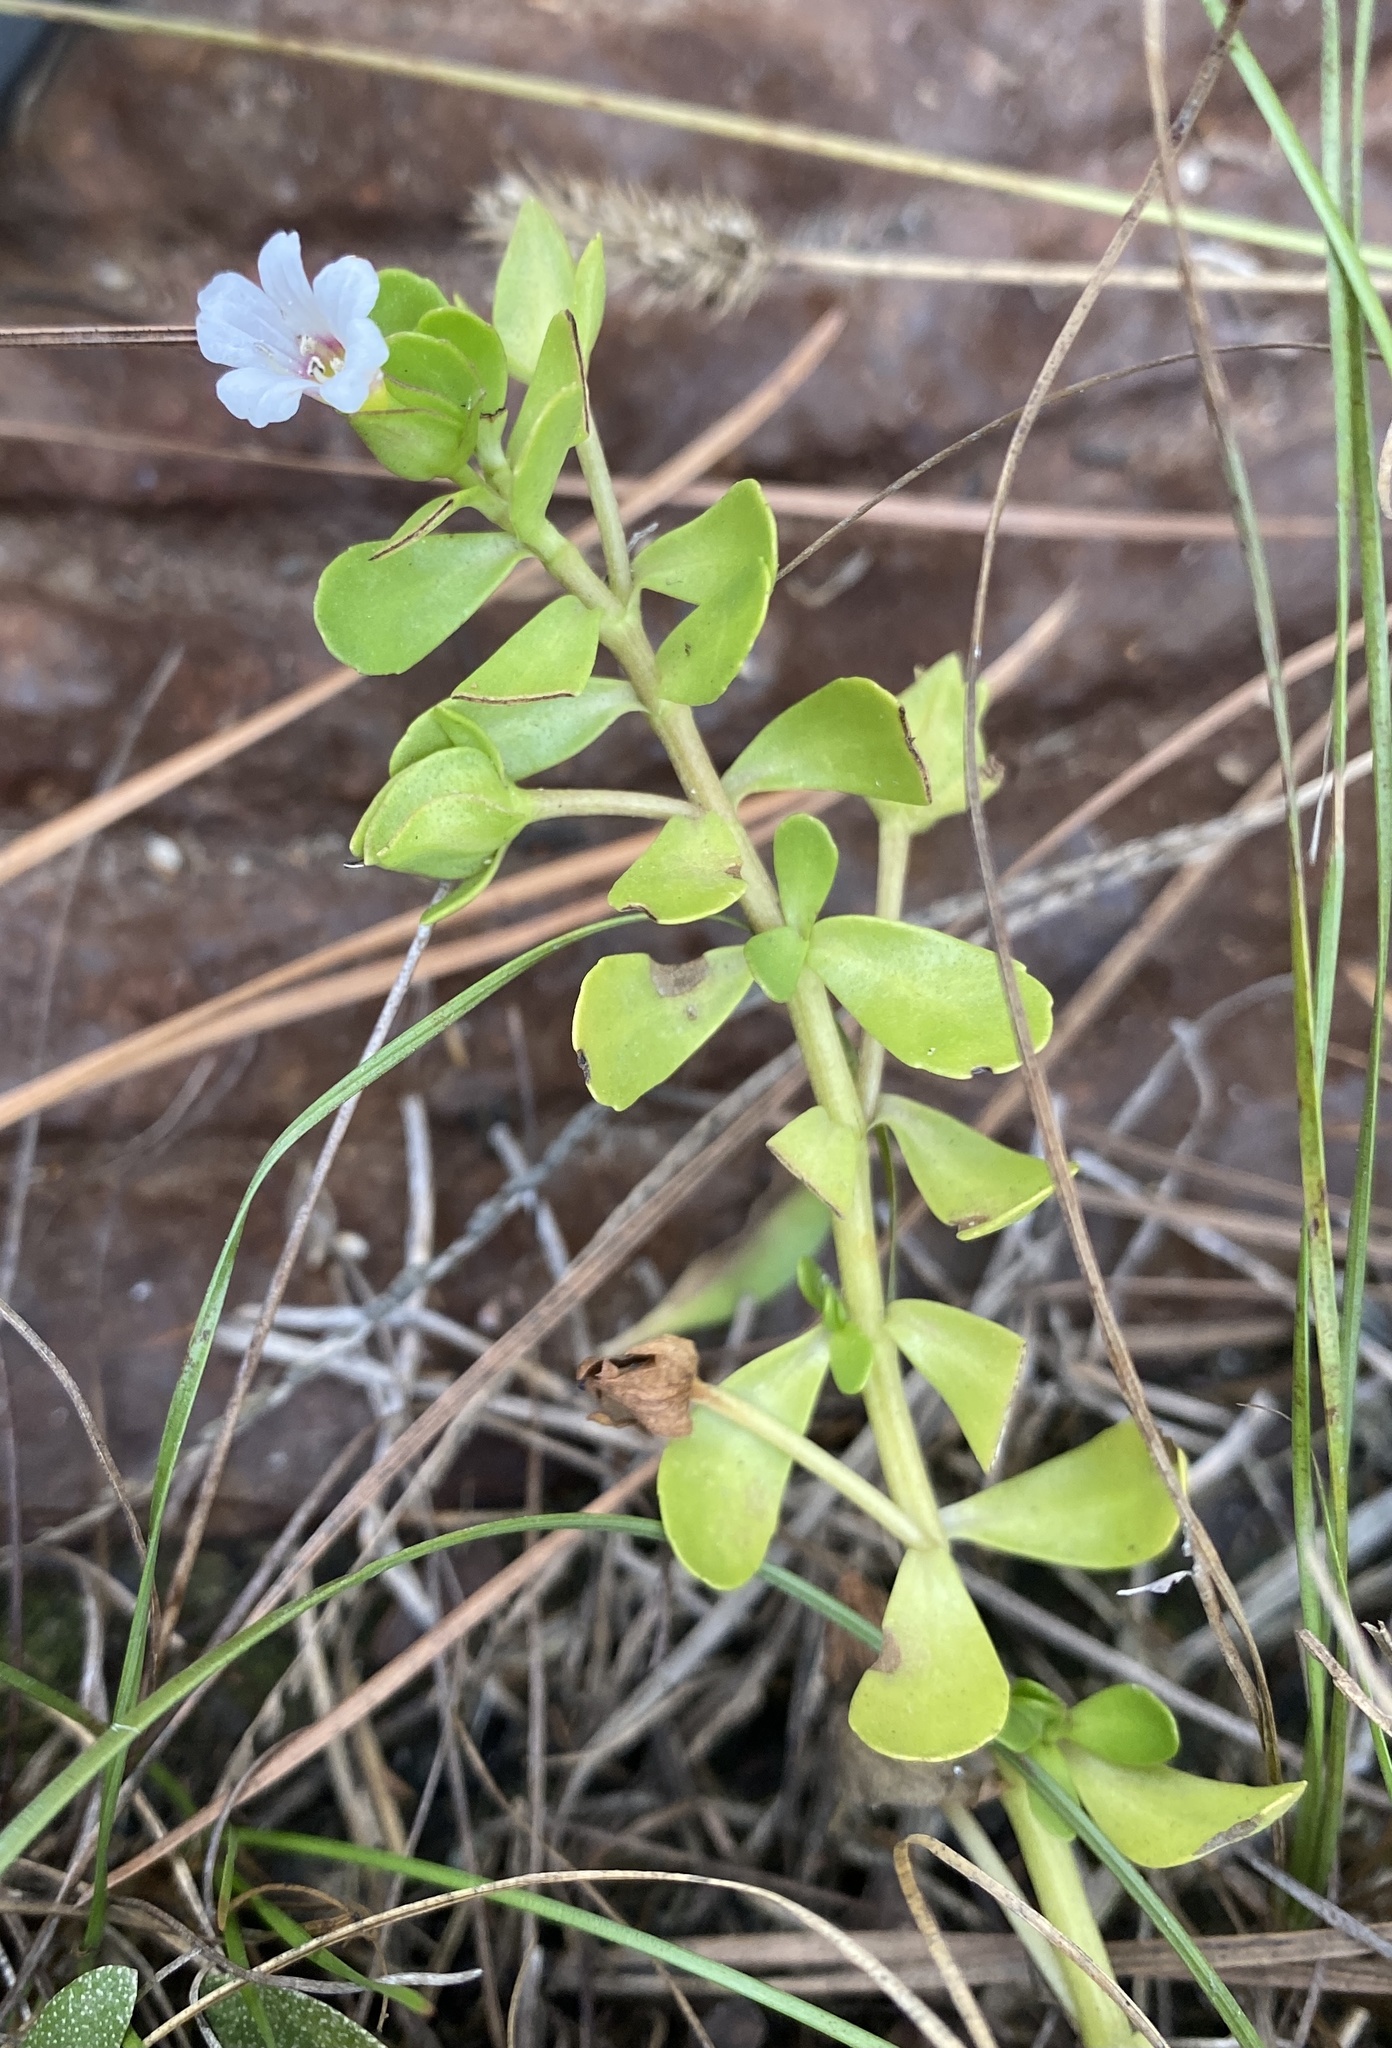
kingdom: Plantae
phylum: Tracheophyta
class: Magnoliopsida
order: Lamiales
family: Plantaginaceae
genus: Bacopa
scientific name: Bacopa monnieri
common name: Indian-pennywort
